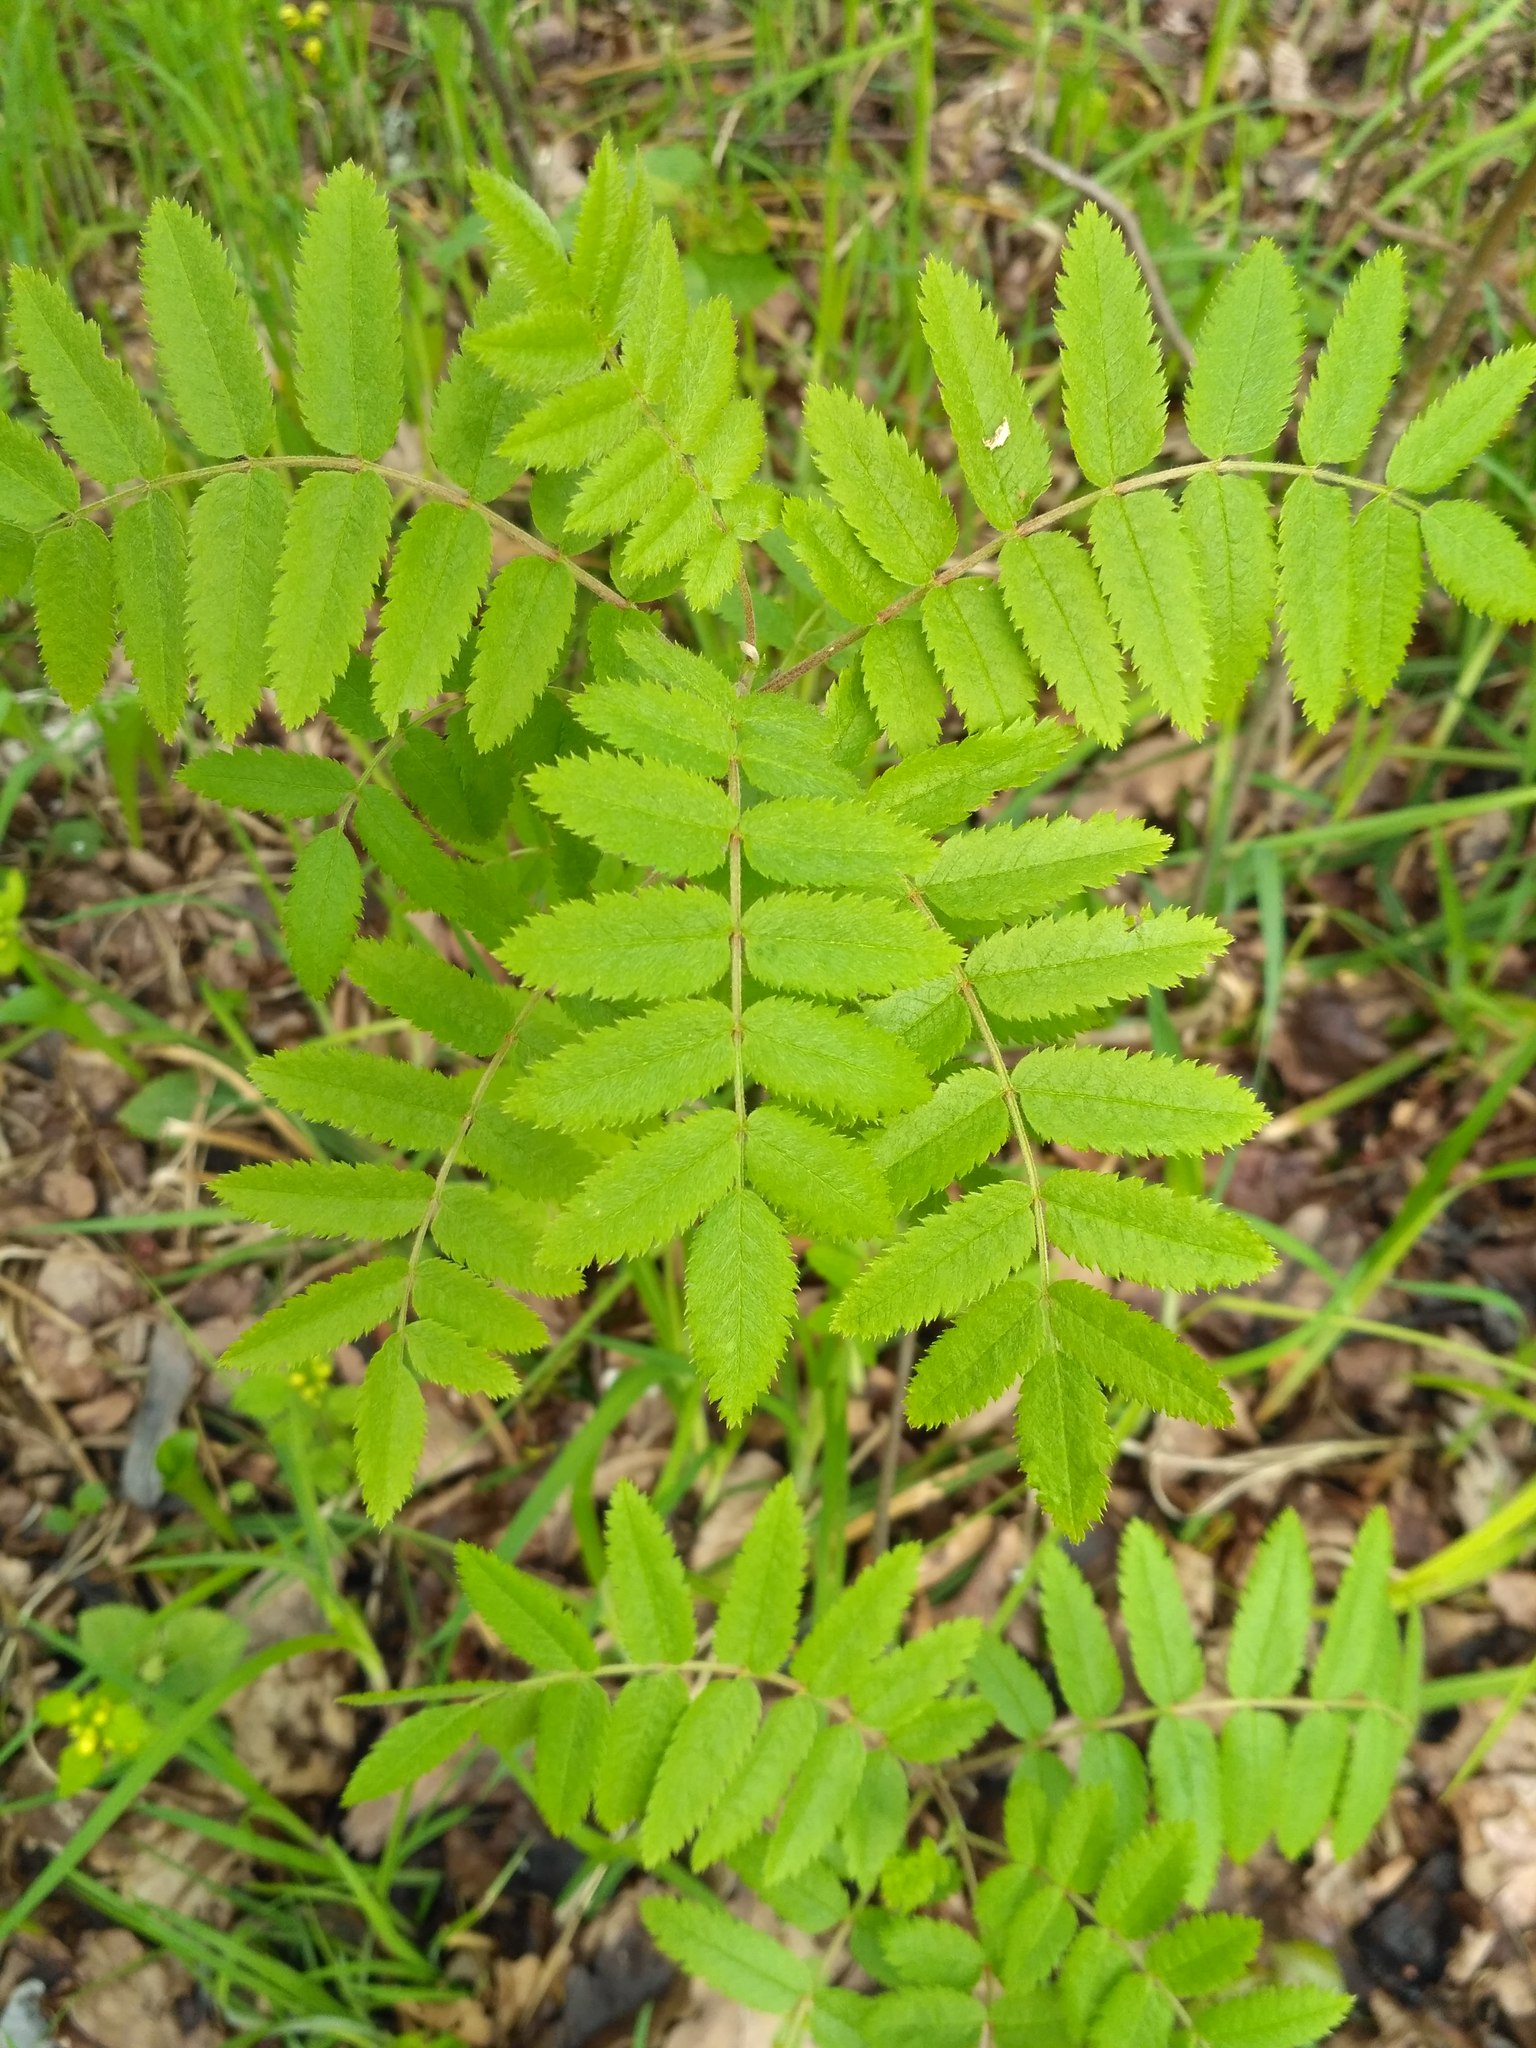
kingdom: Plantae
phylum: Tracheophyta
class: Magnoliopsida
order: Rosales
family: Rosaceae
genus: Sorbus
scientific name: Sorbus aucuparia
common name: Rowan
